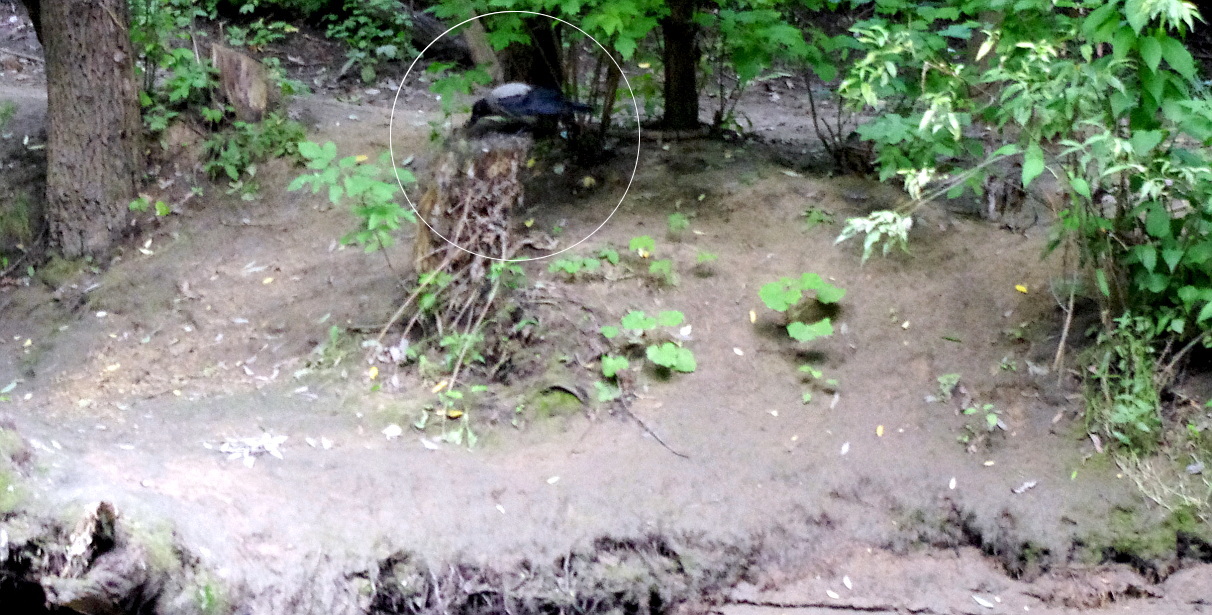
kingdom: Animalia
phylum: Chordata
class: Aves
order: Passeriformes
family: Corvidae
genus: Corvus
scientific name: Corvus cornix
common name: Hooded crow
